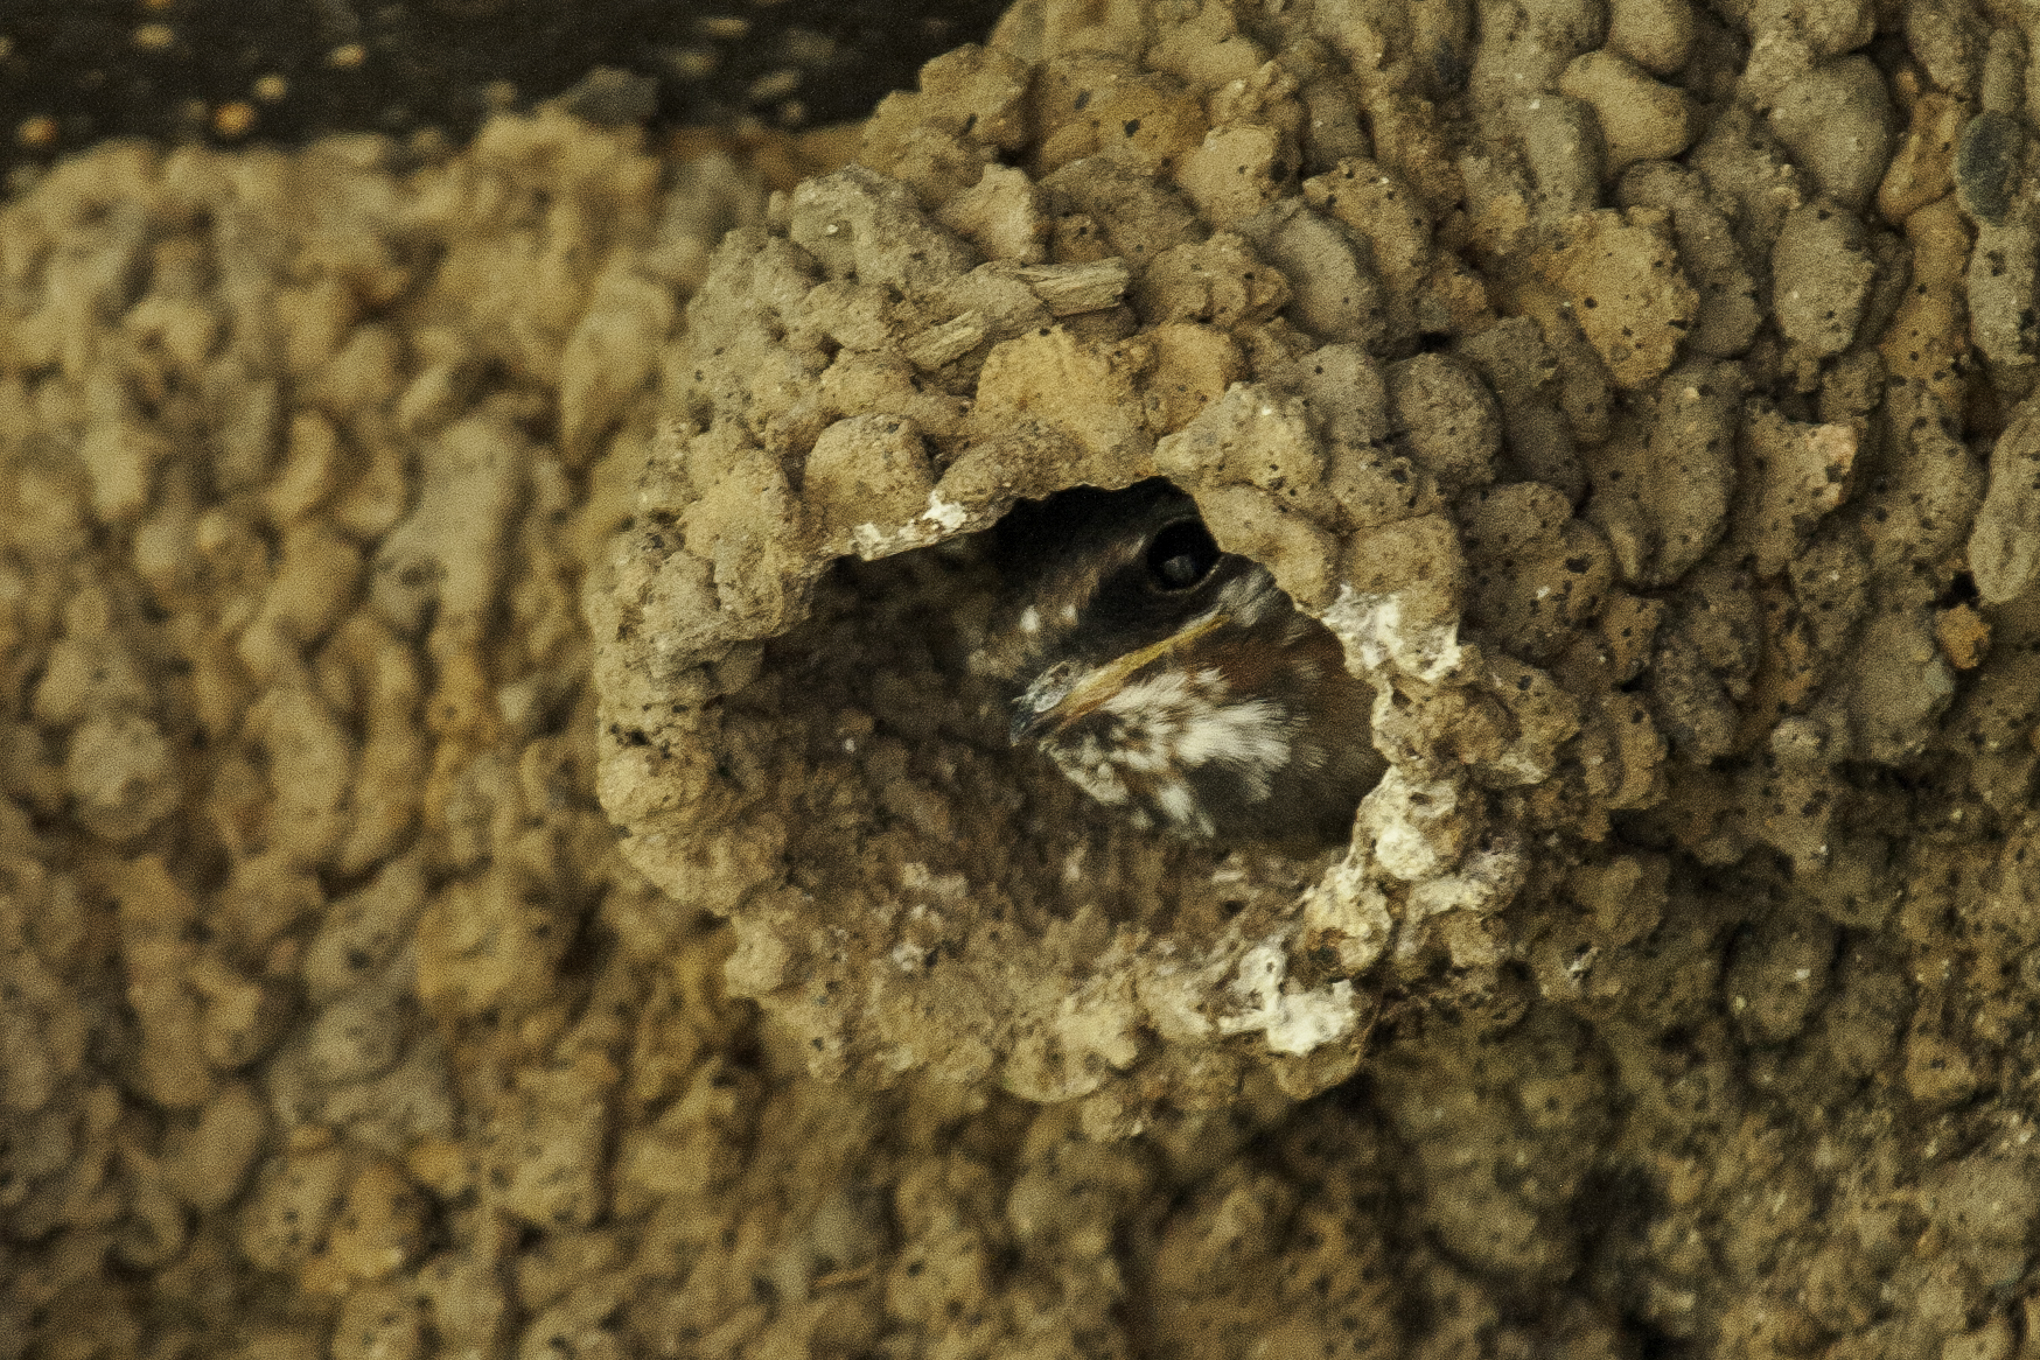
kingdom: Animalia
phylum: Chordata
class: Aves
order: Passeriformes
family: Hirundinidae
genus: Petrochelidon
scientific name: Petrochelidon pyrrhonota
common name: American cliff swallow
